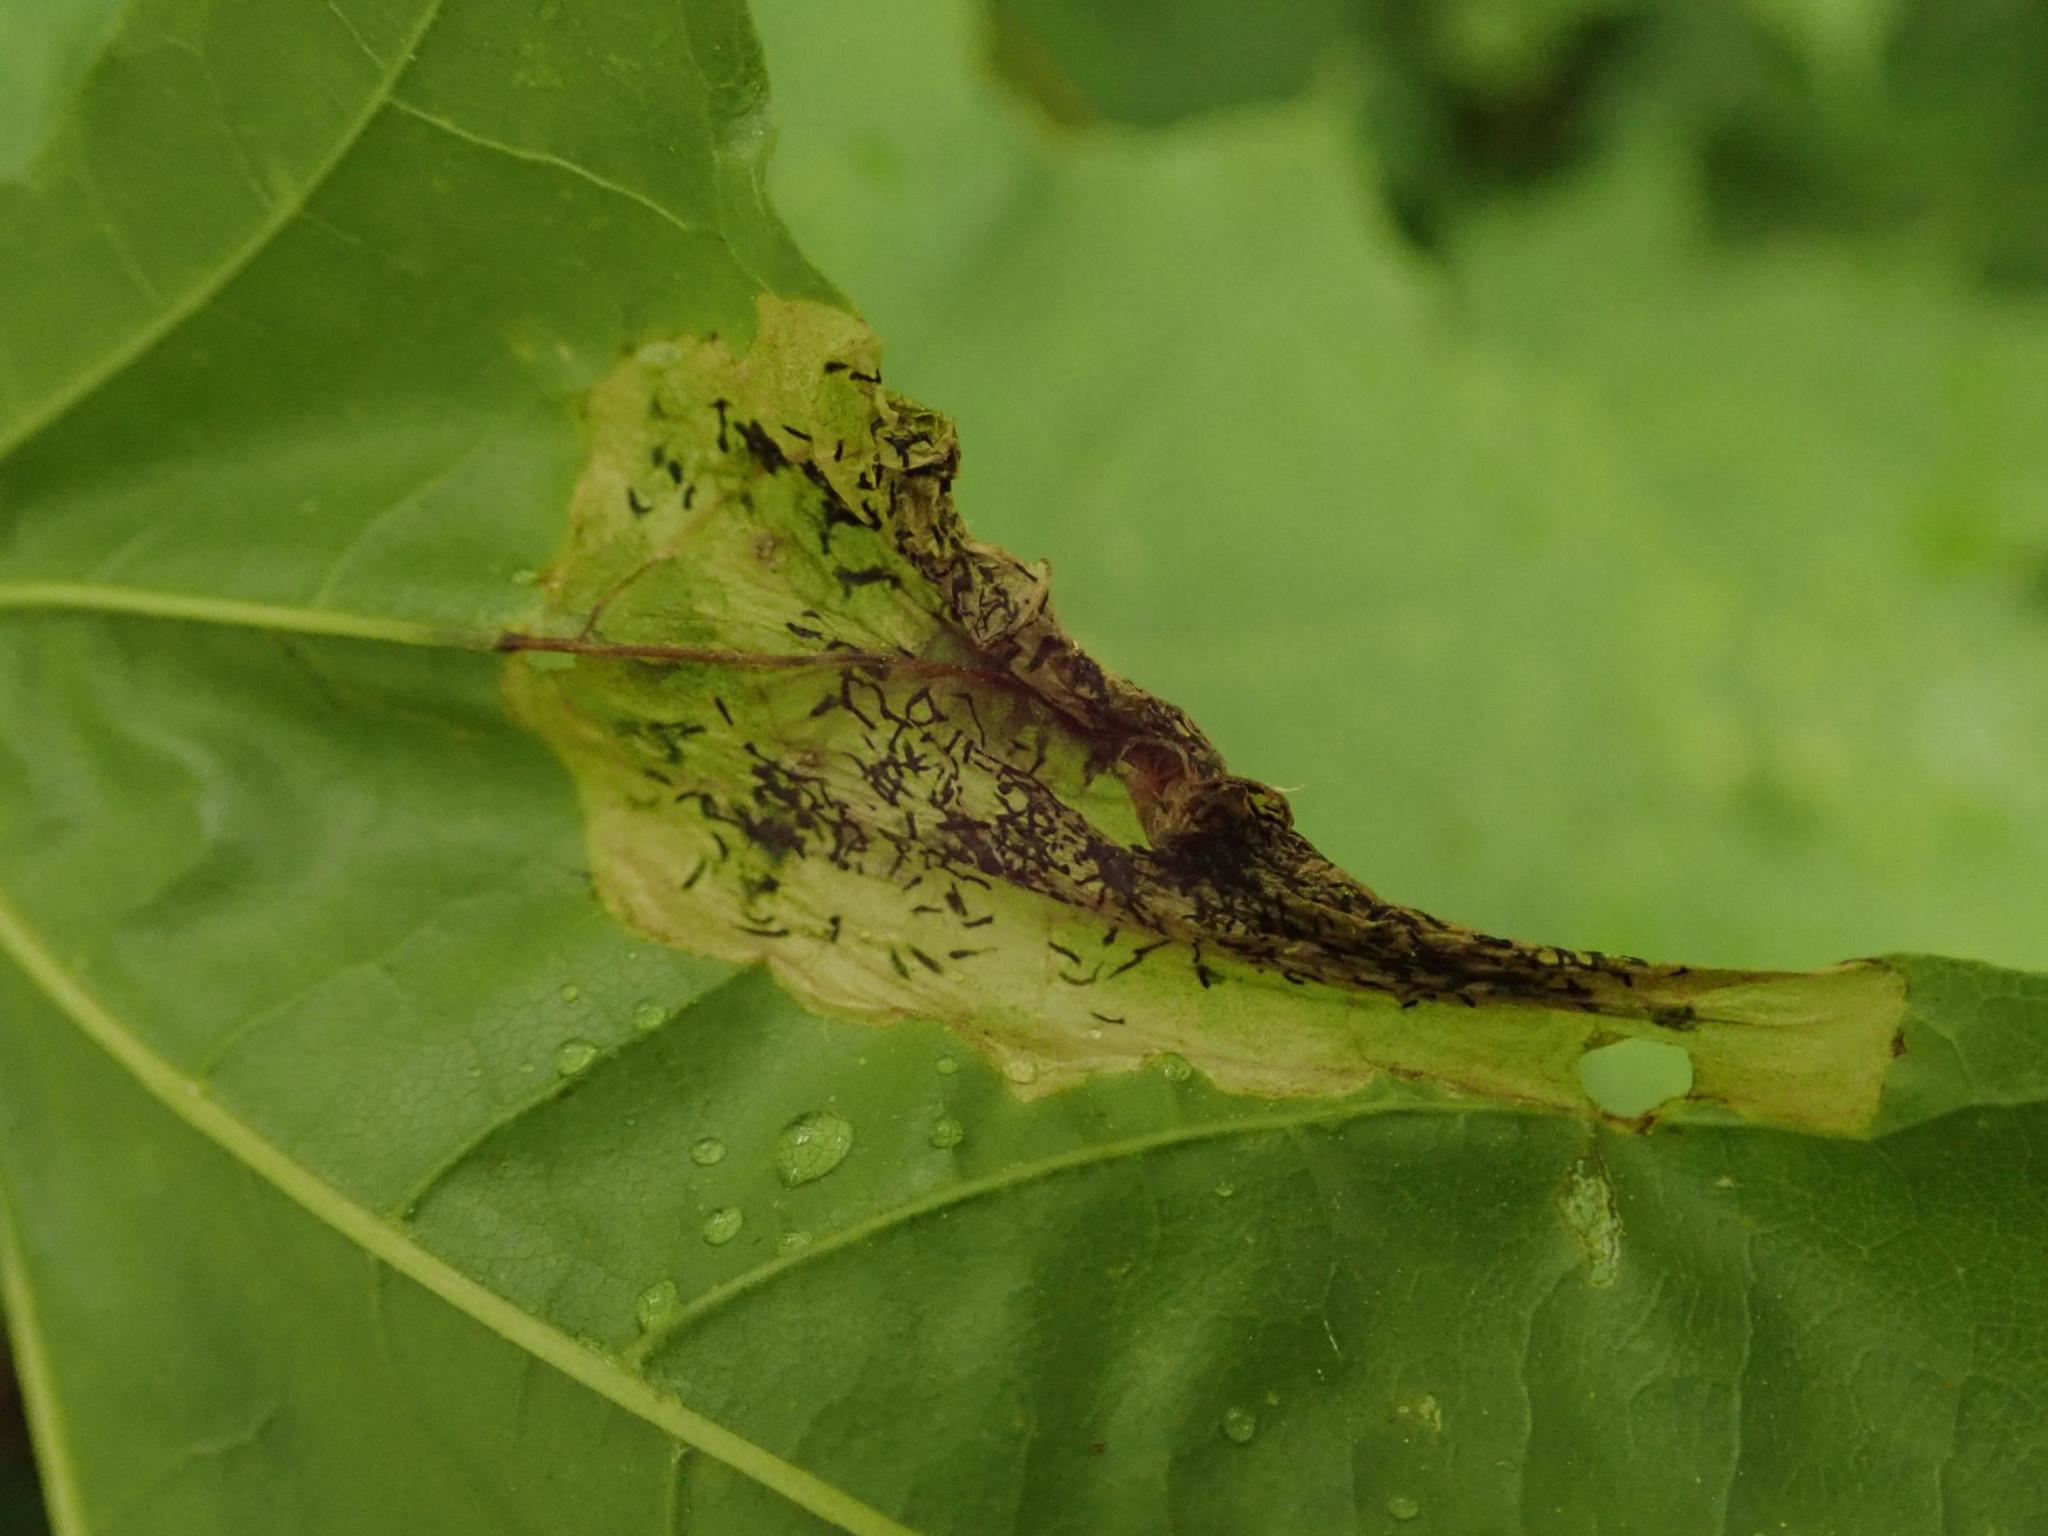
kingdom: Animalia
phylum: Arthropoda
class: Insecta
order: Hymenoptera
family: Tenthredinidae
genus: Hinatara
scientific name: Hinatara recta
